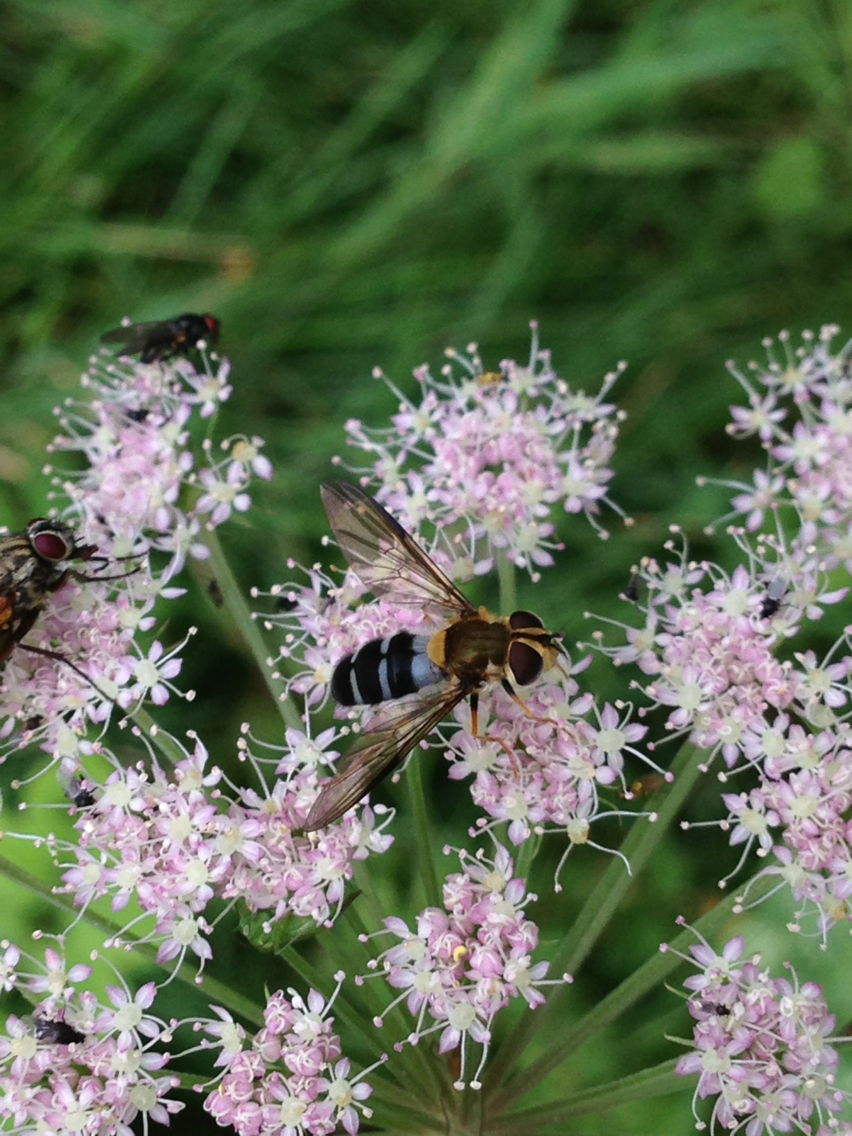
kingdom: Animalia
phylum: Arthropoda
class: Insecta
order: Diptera
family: Syrphidae
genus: Leucozona
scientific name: Leucozona glaucia
